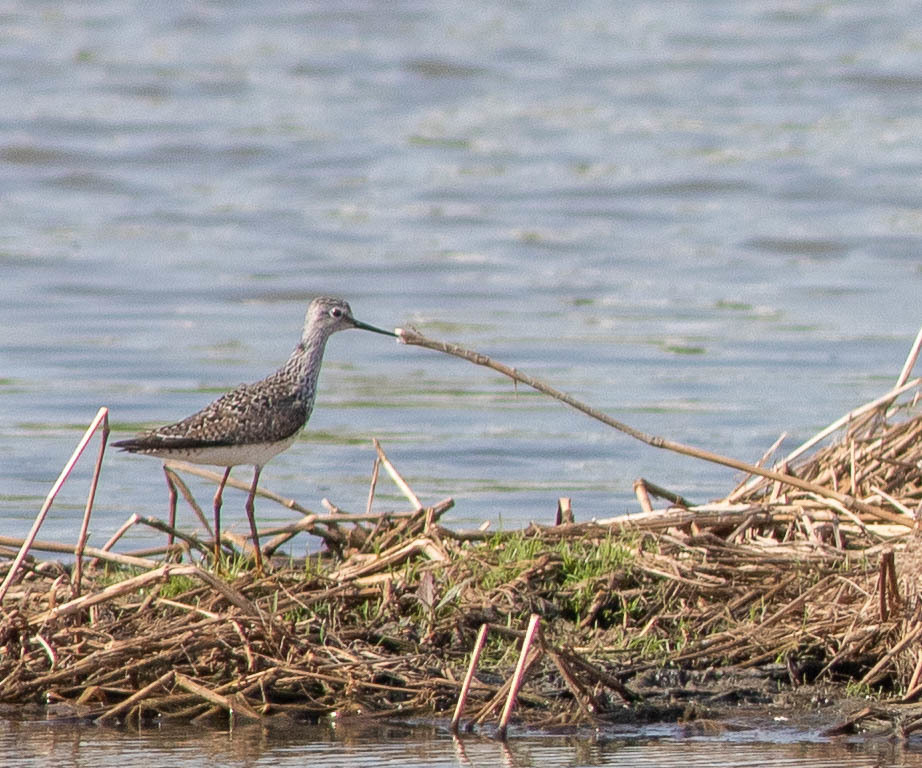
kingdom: Animalia
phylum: Chordata
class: Aves
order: Charadriiformes
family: Scolopacidae
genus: Tringa
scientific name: Tringa flavipes
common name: Lesser yellowlegs
